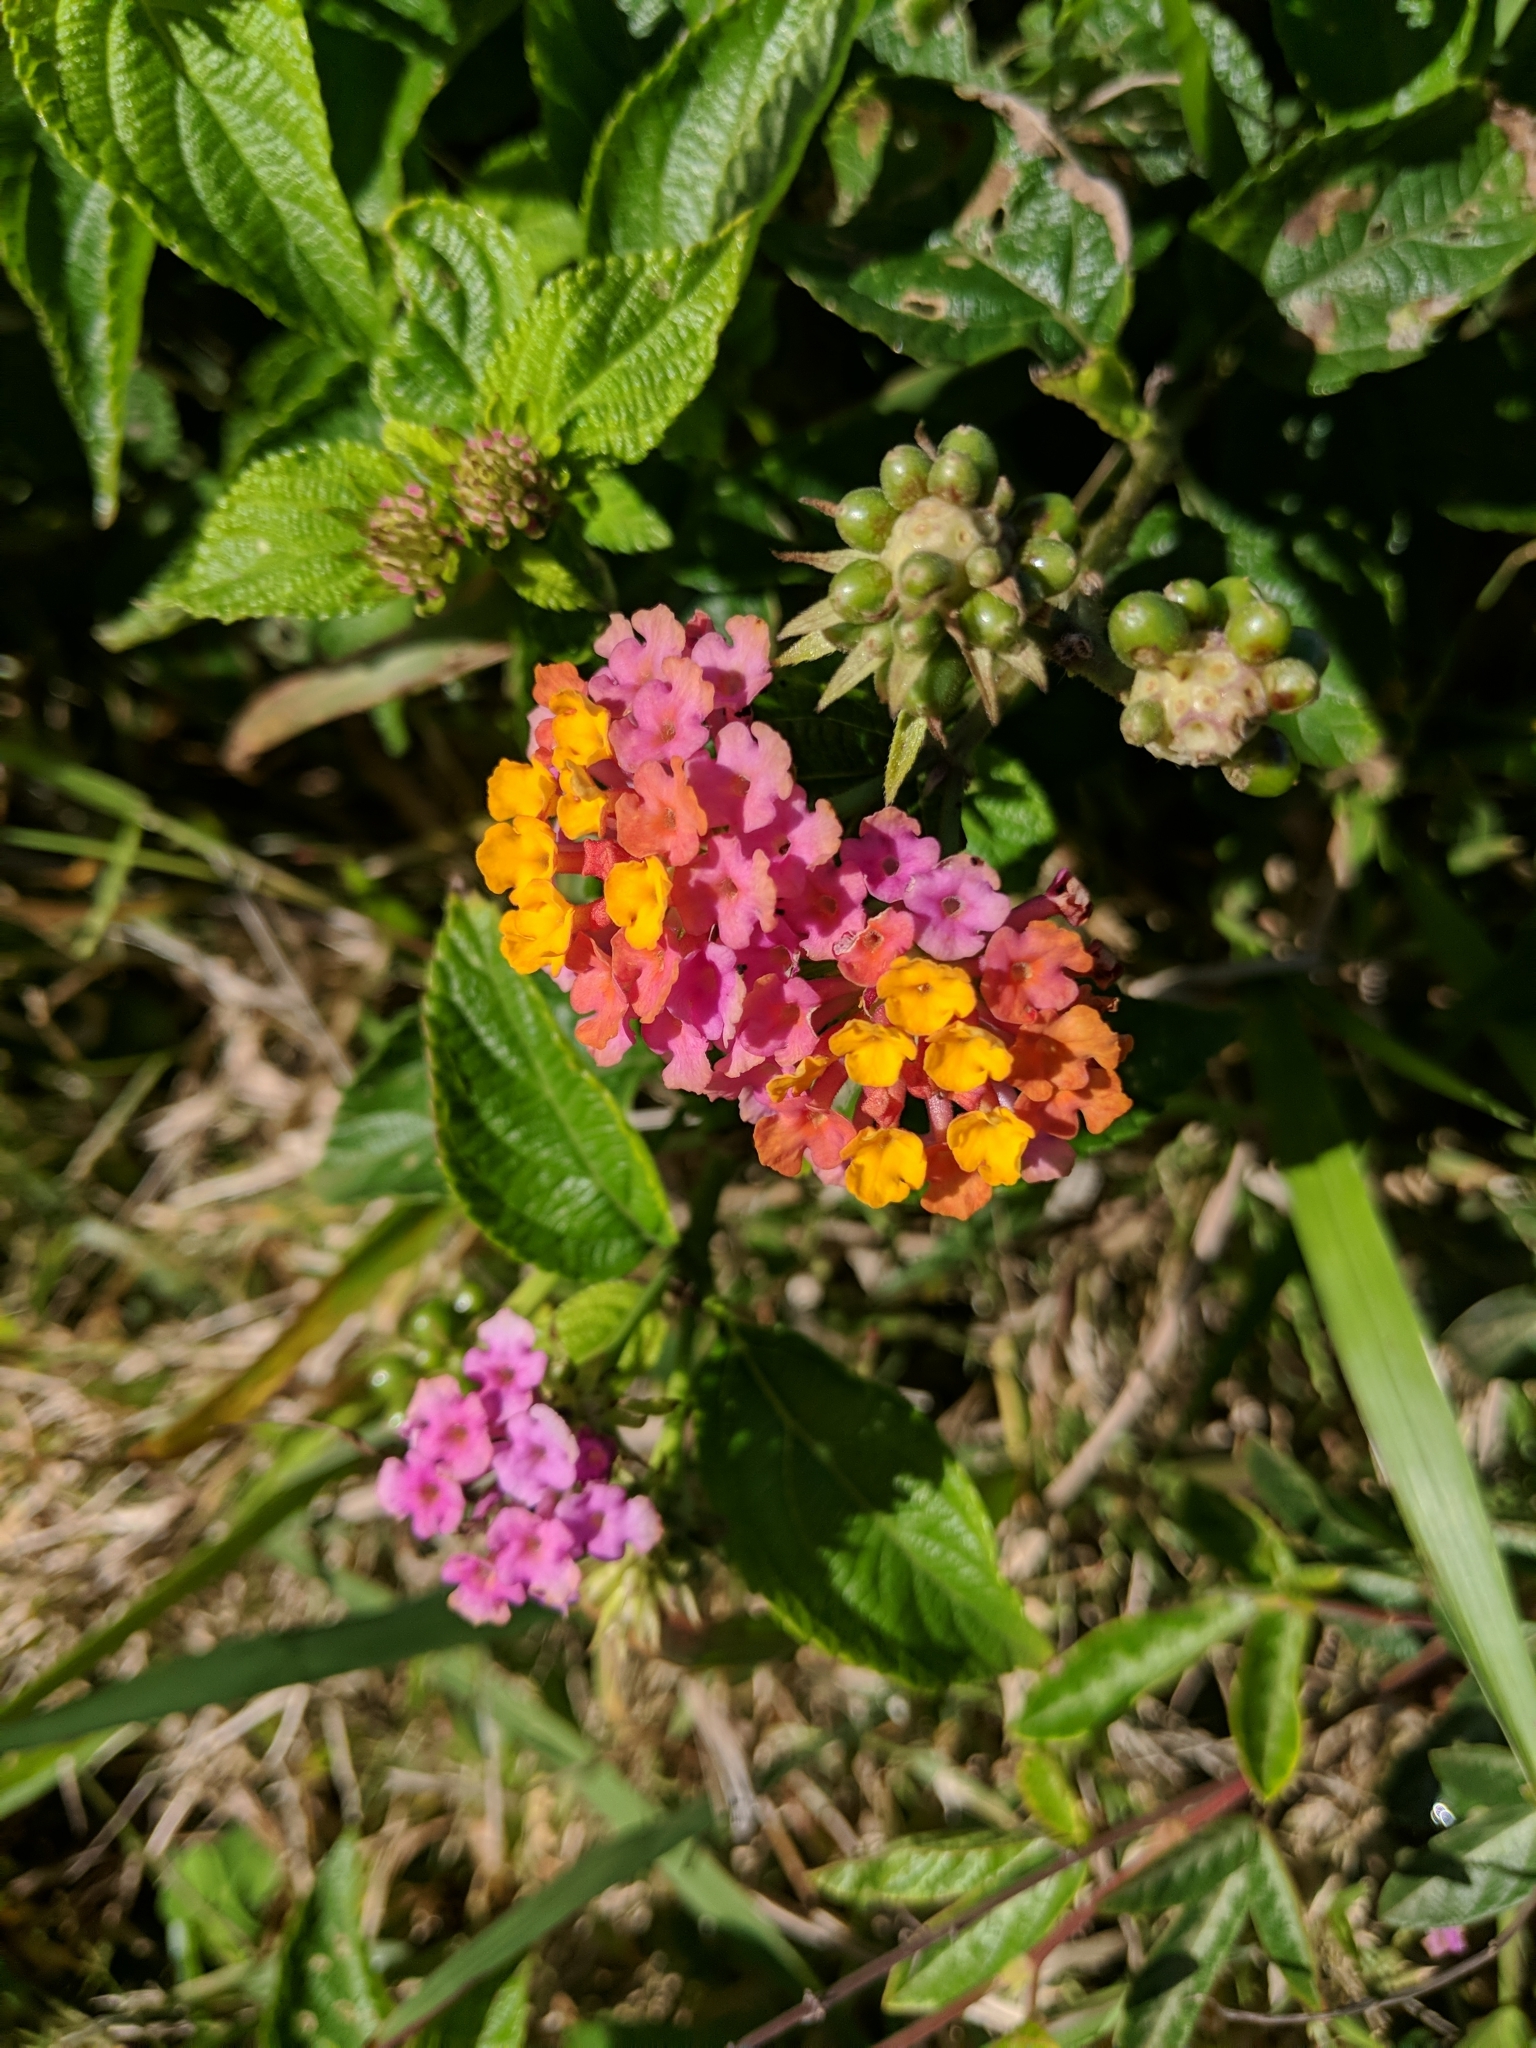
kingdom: Plantae
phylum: Tracheophyta
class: Magnoliopsida
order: Lamiales
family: Verbenaceae
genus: Lantana
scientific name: Lantana camara
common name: Lantana
